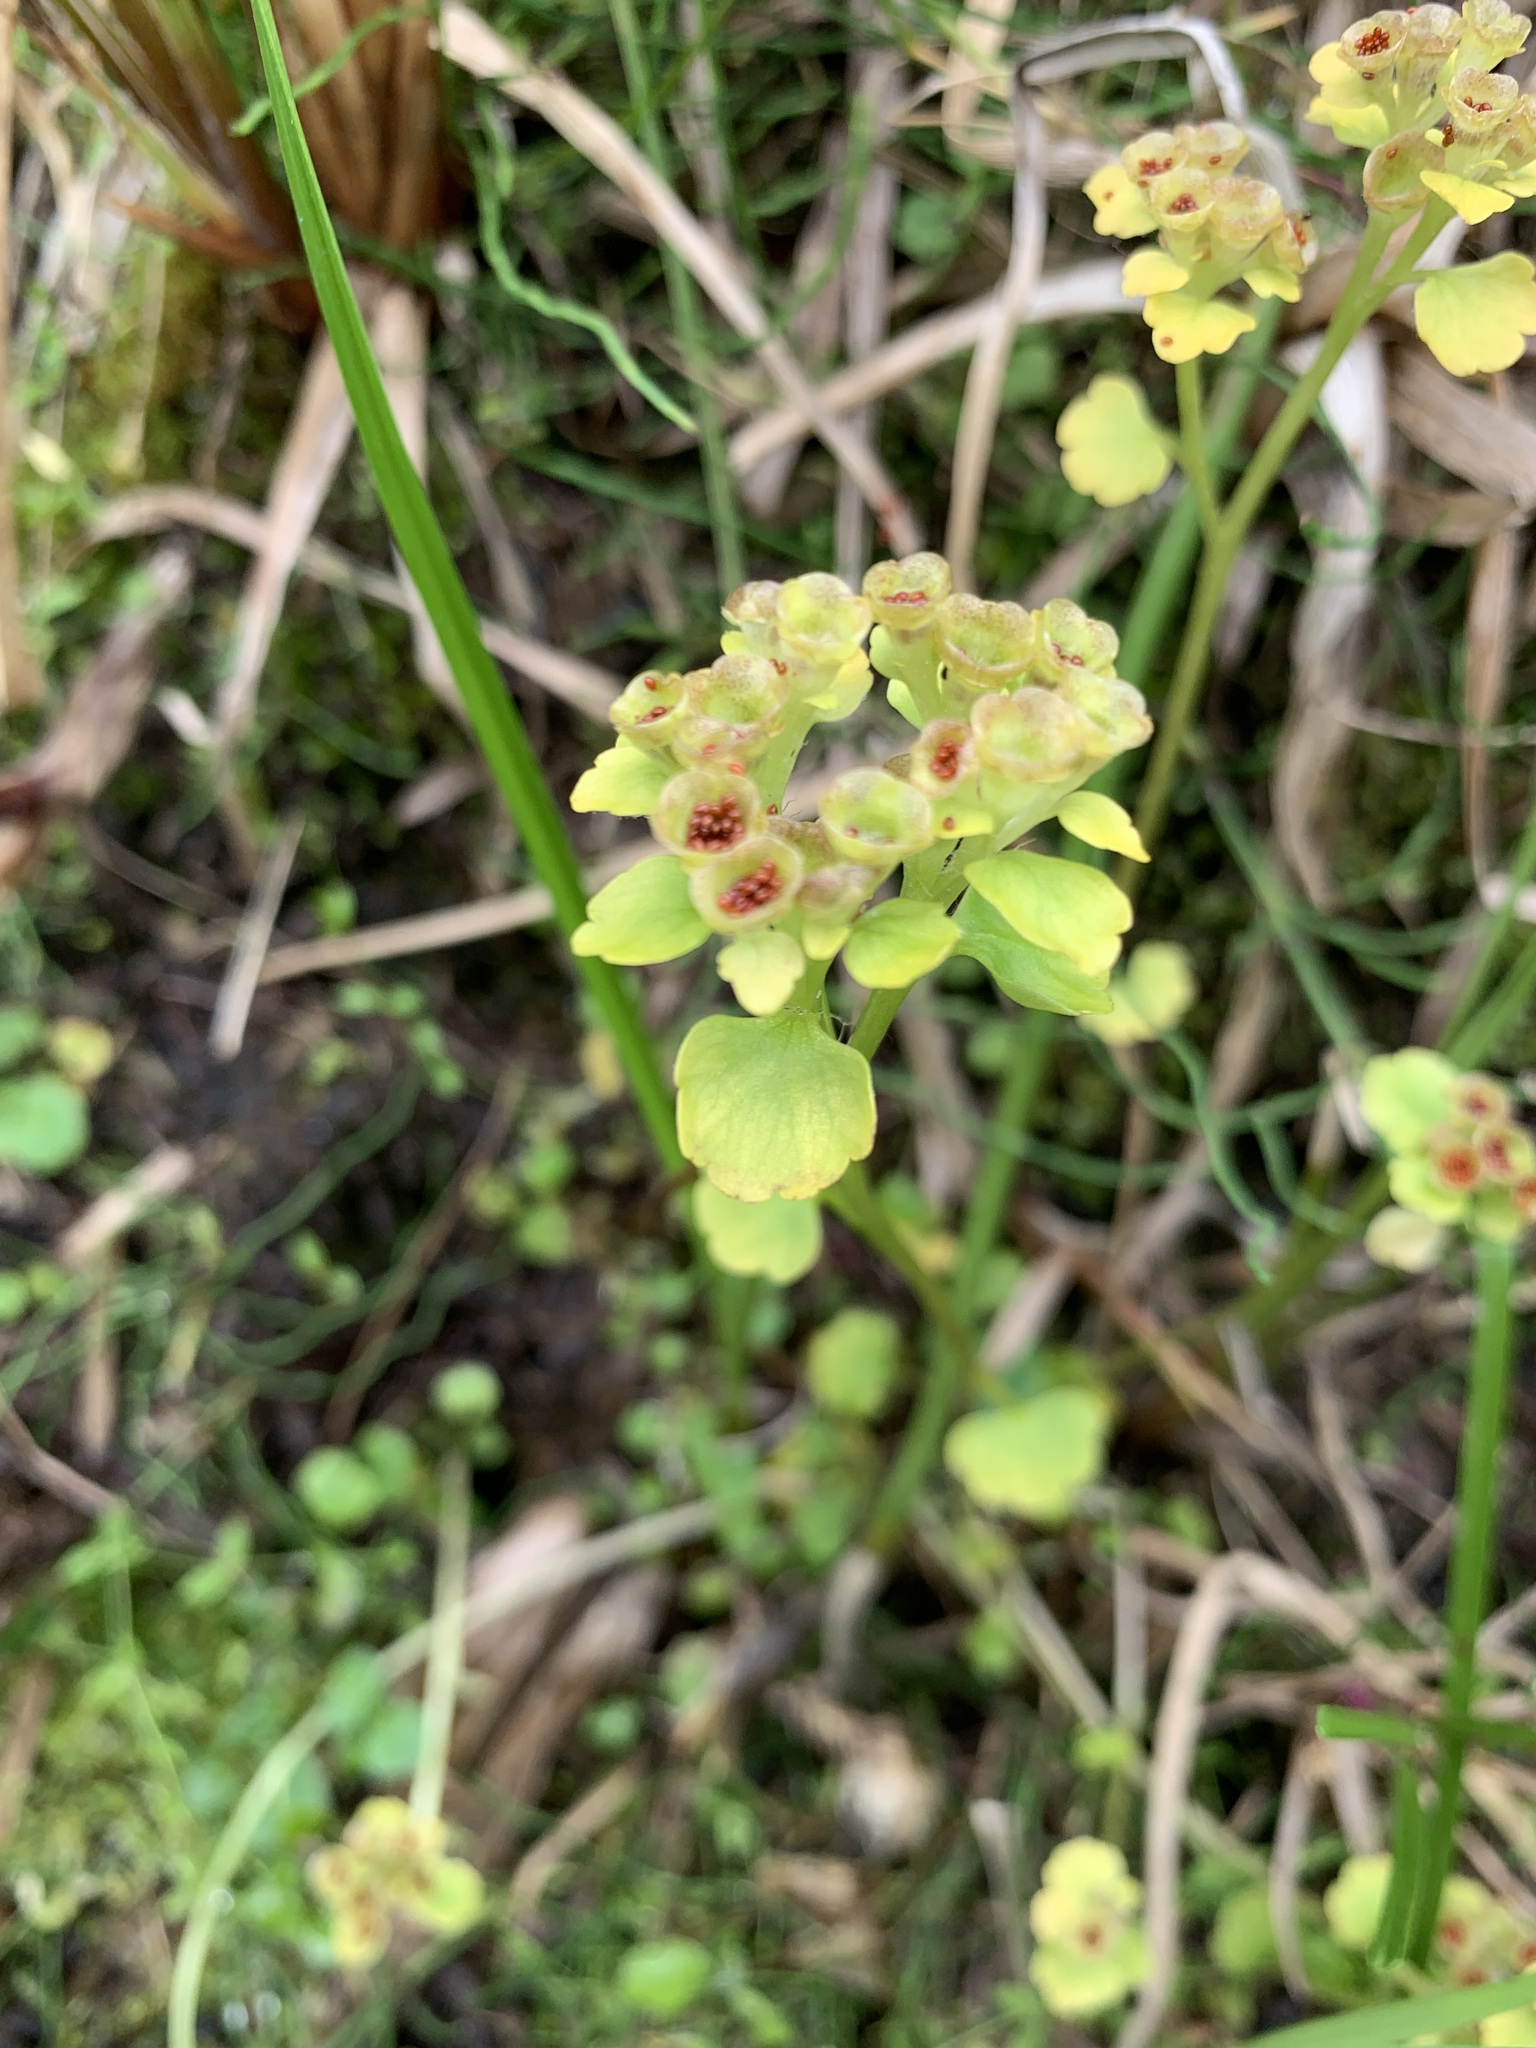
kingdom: Plantae
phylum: Tracheophyta
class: Magnoliopsida
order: Saxifragales
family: Saxifragaceae
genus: Chrysosplenium
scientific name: Chrysosplenium tetrandrum
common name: Green saxifrage
